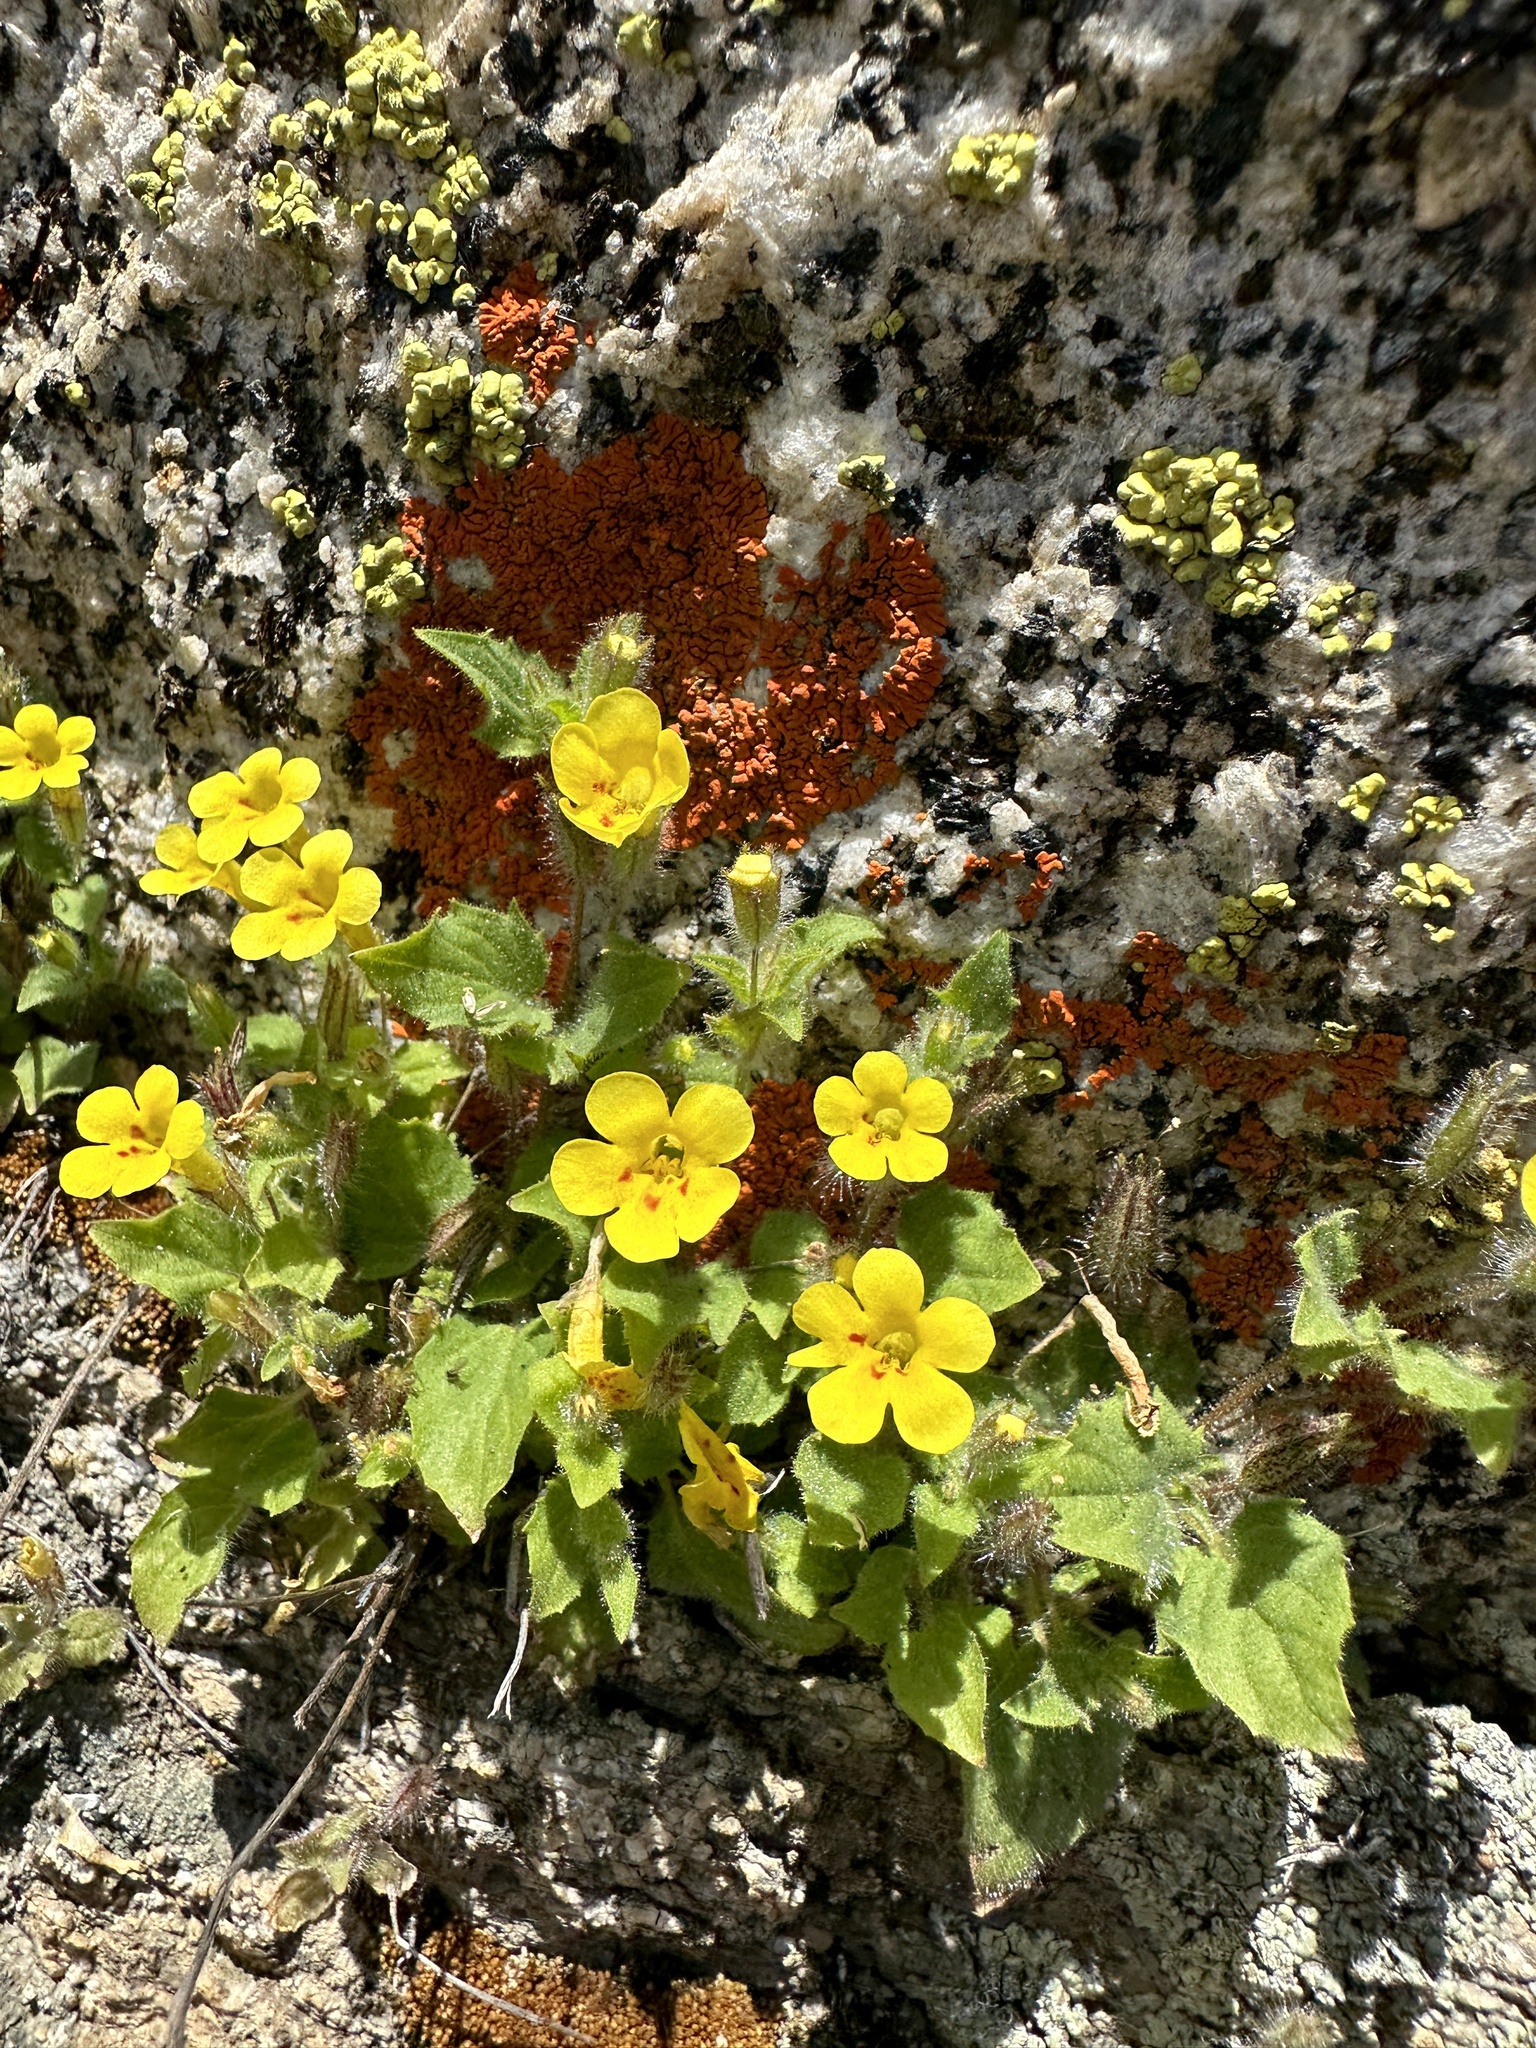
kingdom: Plantae
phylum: Tracheophyta
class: Magnoliopsida
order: Lamiales
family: Phrymaceae
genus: Erythranthe
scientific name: Erythranthe geniculata
